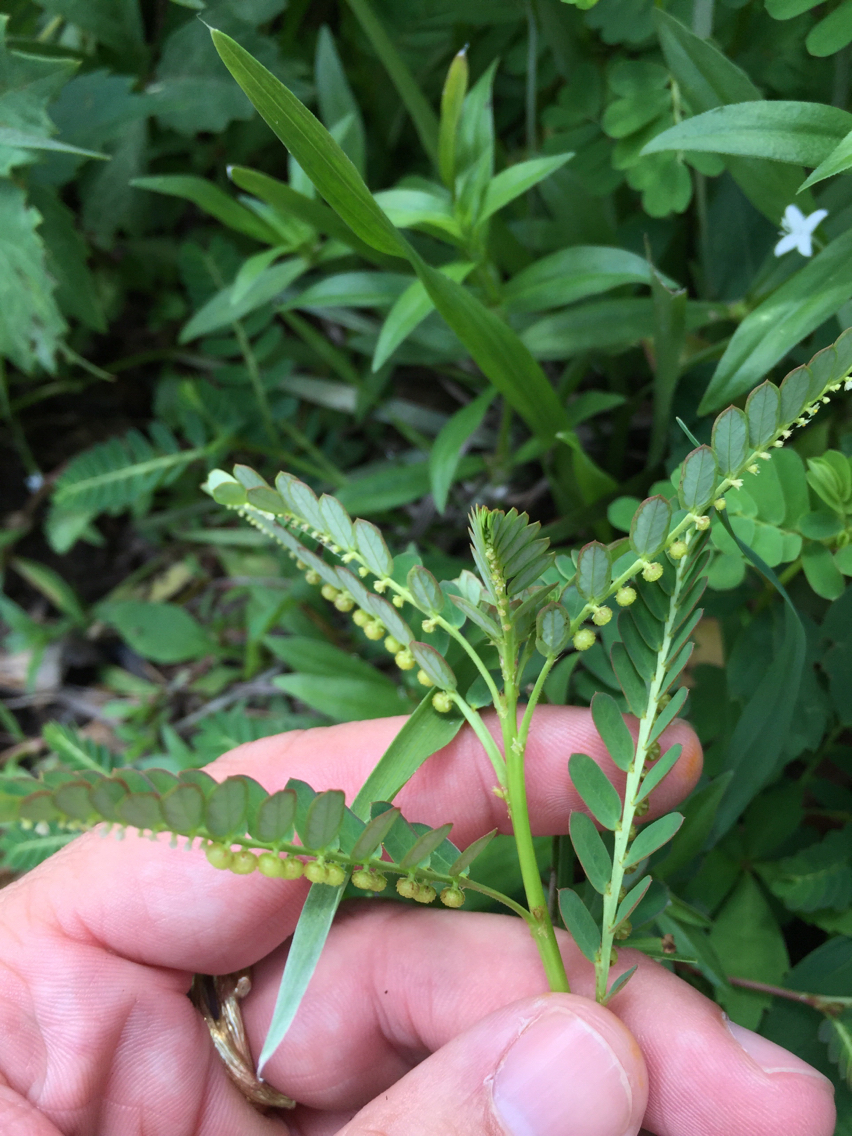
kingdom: Plantae
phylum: Tracheophyta
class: Magnoliopsida
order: Malpighiales
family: Phyllanthaceae
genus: Phyllanthus
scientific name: Phyllanthus urinaria
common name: Chamber bitter
